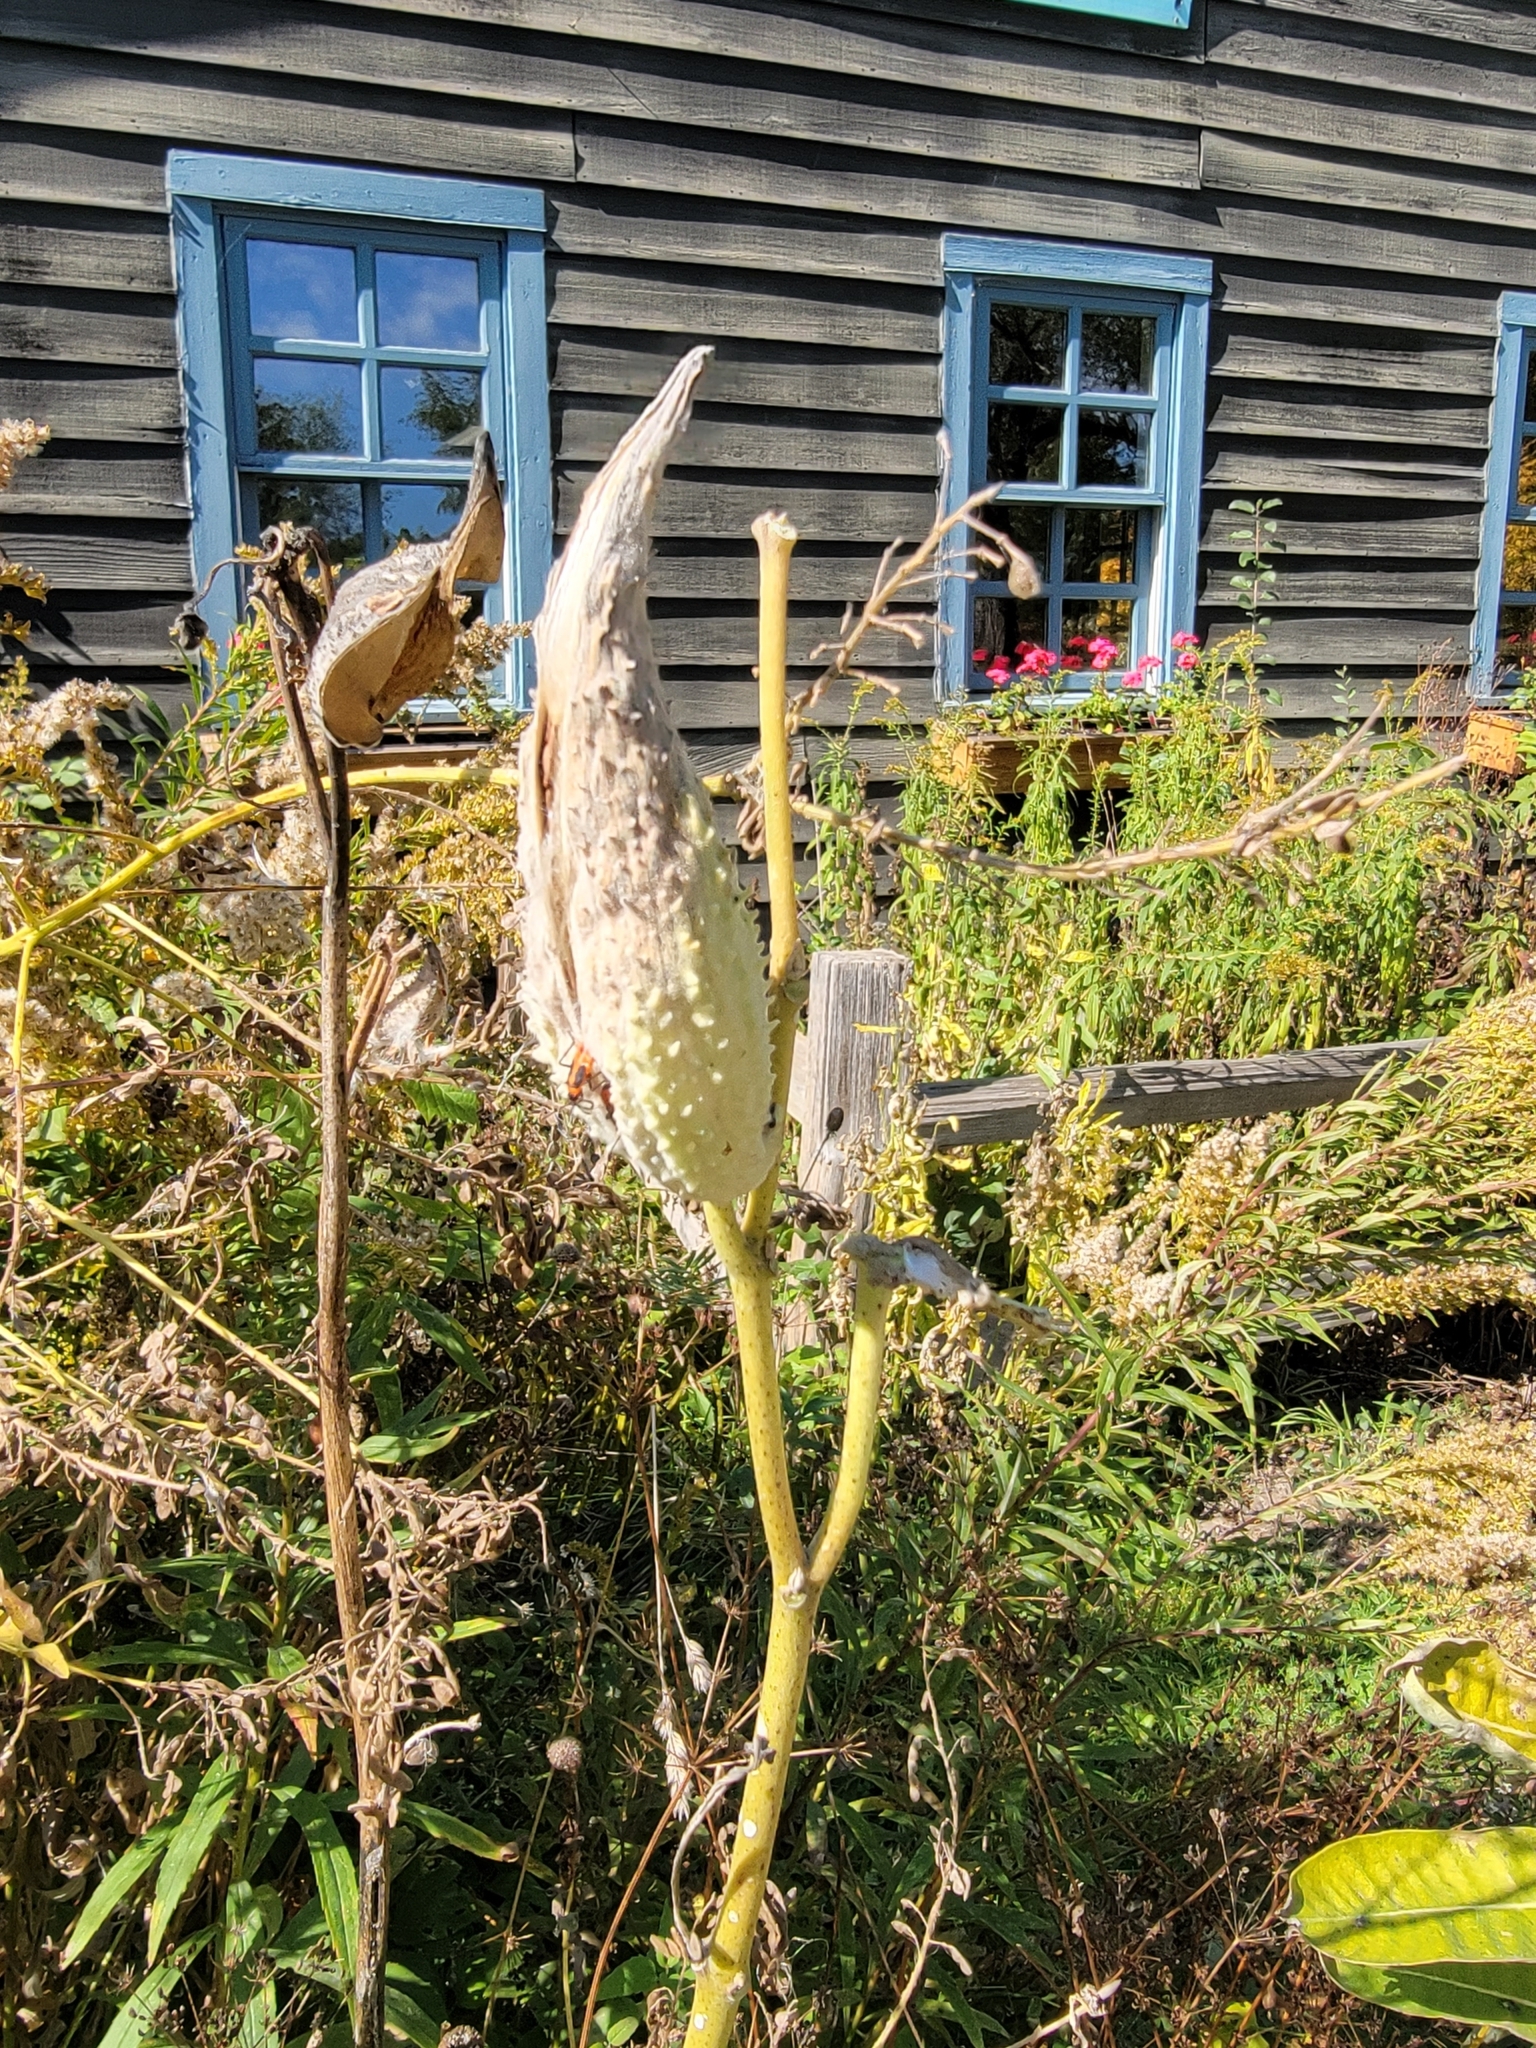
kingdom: Plantae
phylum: Tracheophyta
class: Magnoliopsida
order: Gentianales
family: Apocynaceae
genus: Asclepias
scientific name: Asclepias syriaca
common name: Common milkweed
